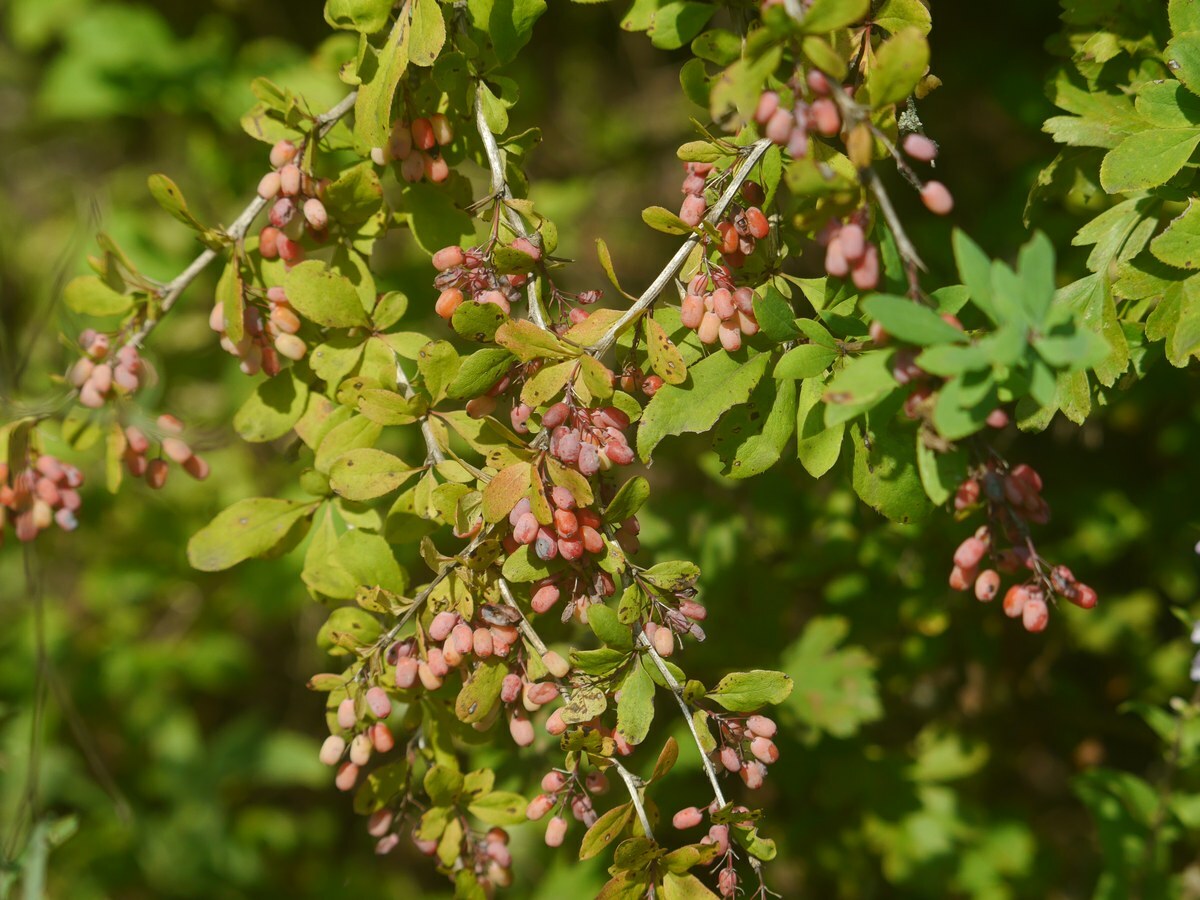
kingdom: Plantae
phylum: Tracheophyta
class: Magnoliopsida
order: Ranunculales
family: Berberidaceae
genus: Berberis
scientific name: Berberis vulgaris
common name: Barberry
